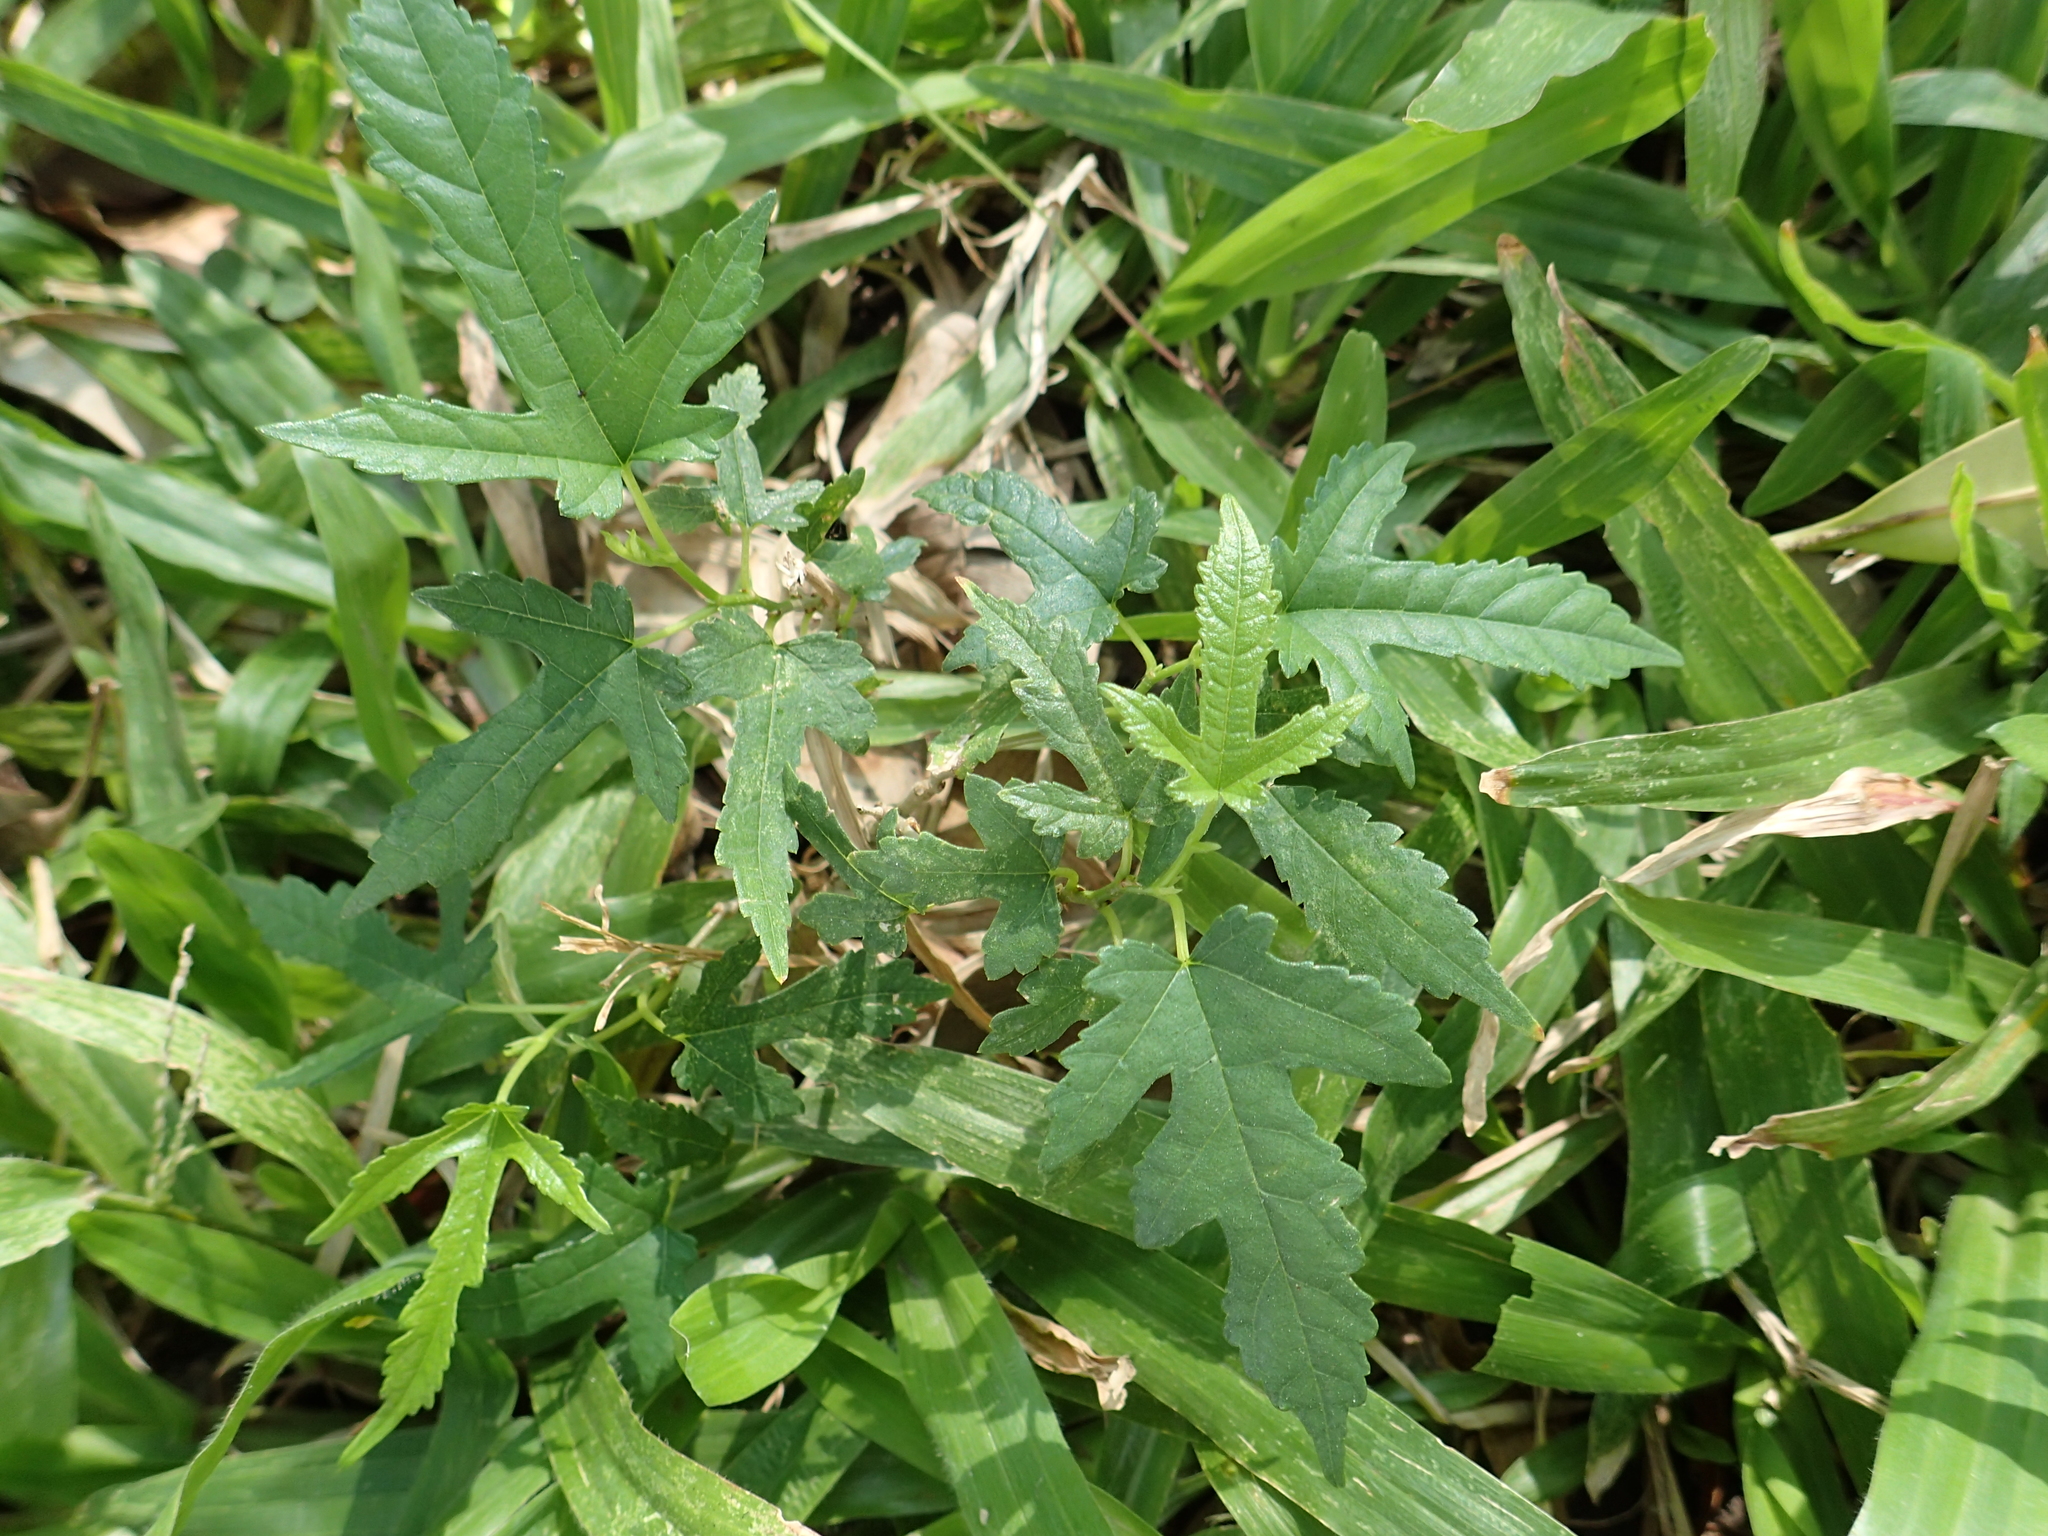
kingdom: Plantae
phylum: Tracheophyta
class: Magnoliopsida
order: Rosales
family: Moraceae
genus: Morus
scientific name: Morus indica
